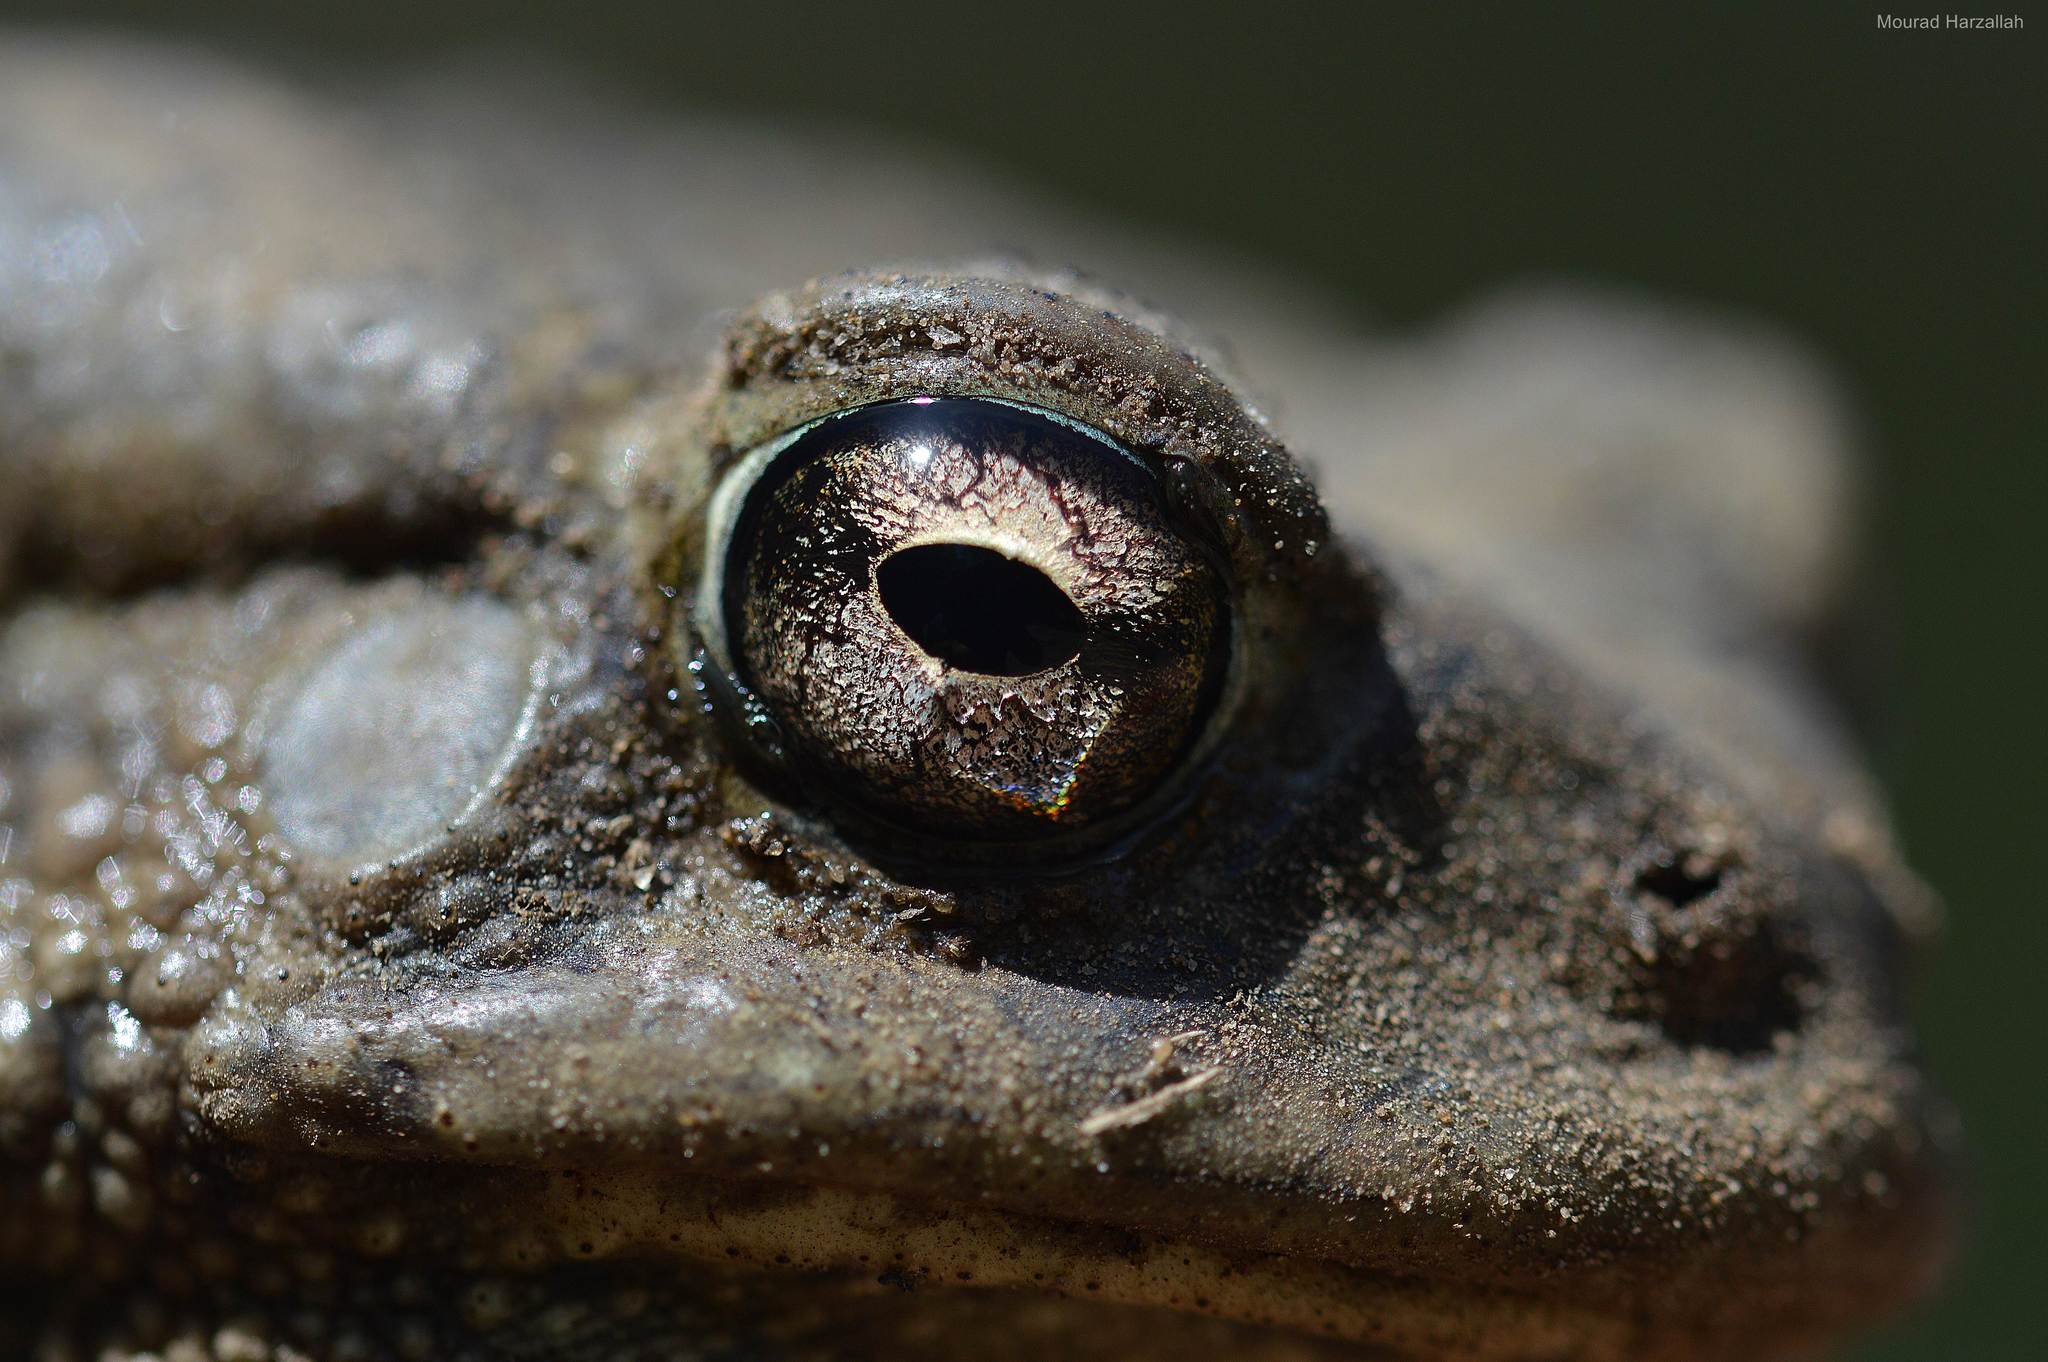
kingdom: Animalia
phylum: Chordata
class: Amphibia
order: Anura
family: Bufonidae
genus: Sclerophrys
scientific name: Sclerophrys mauritanica
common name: Berber toad
